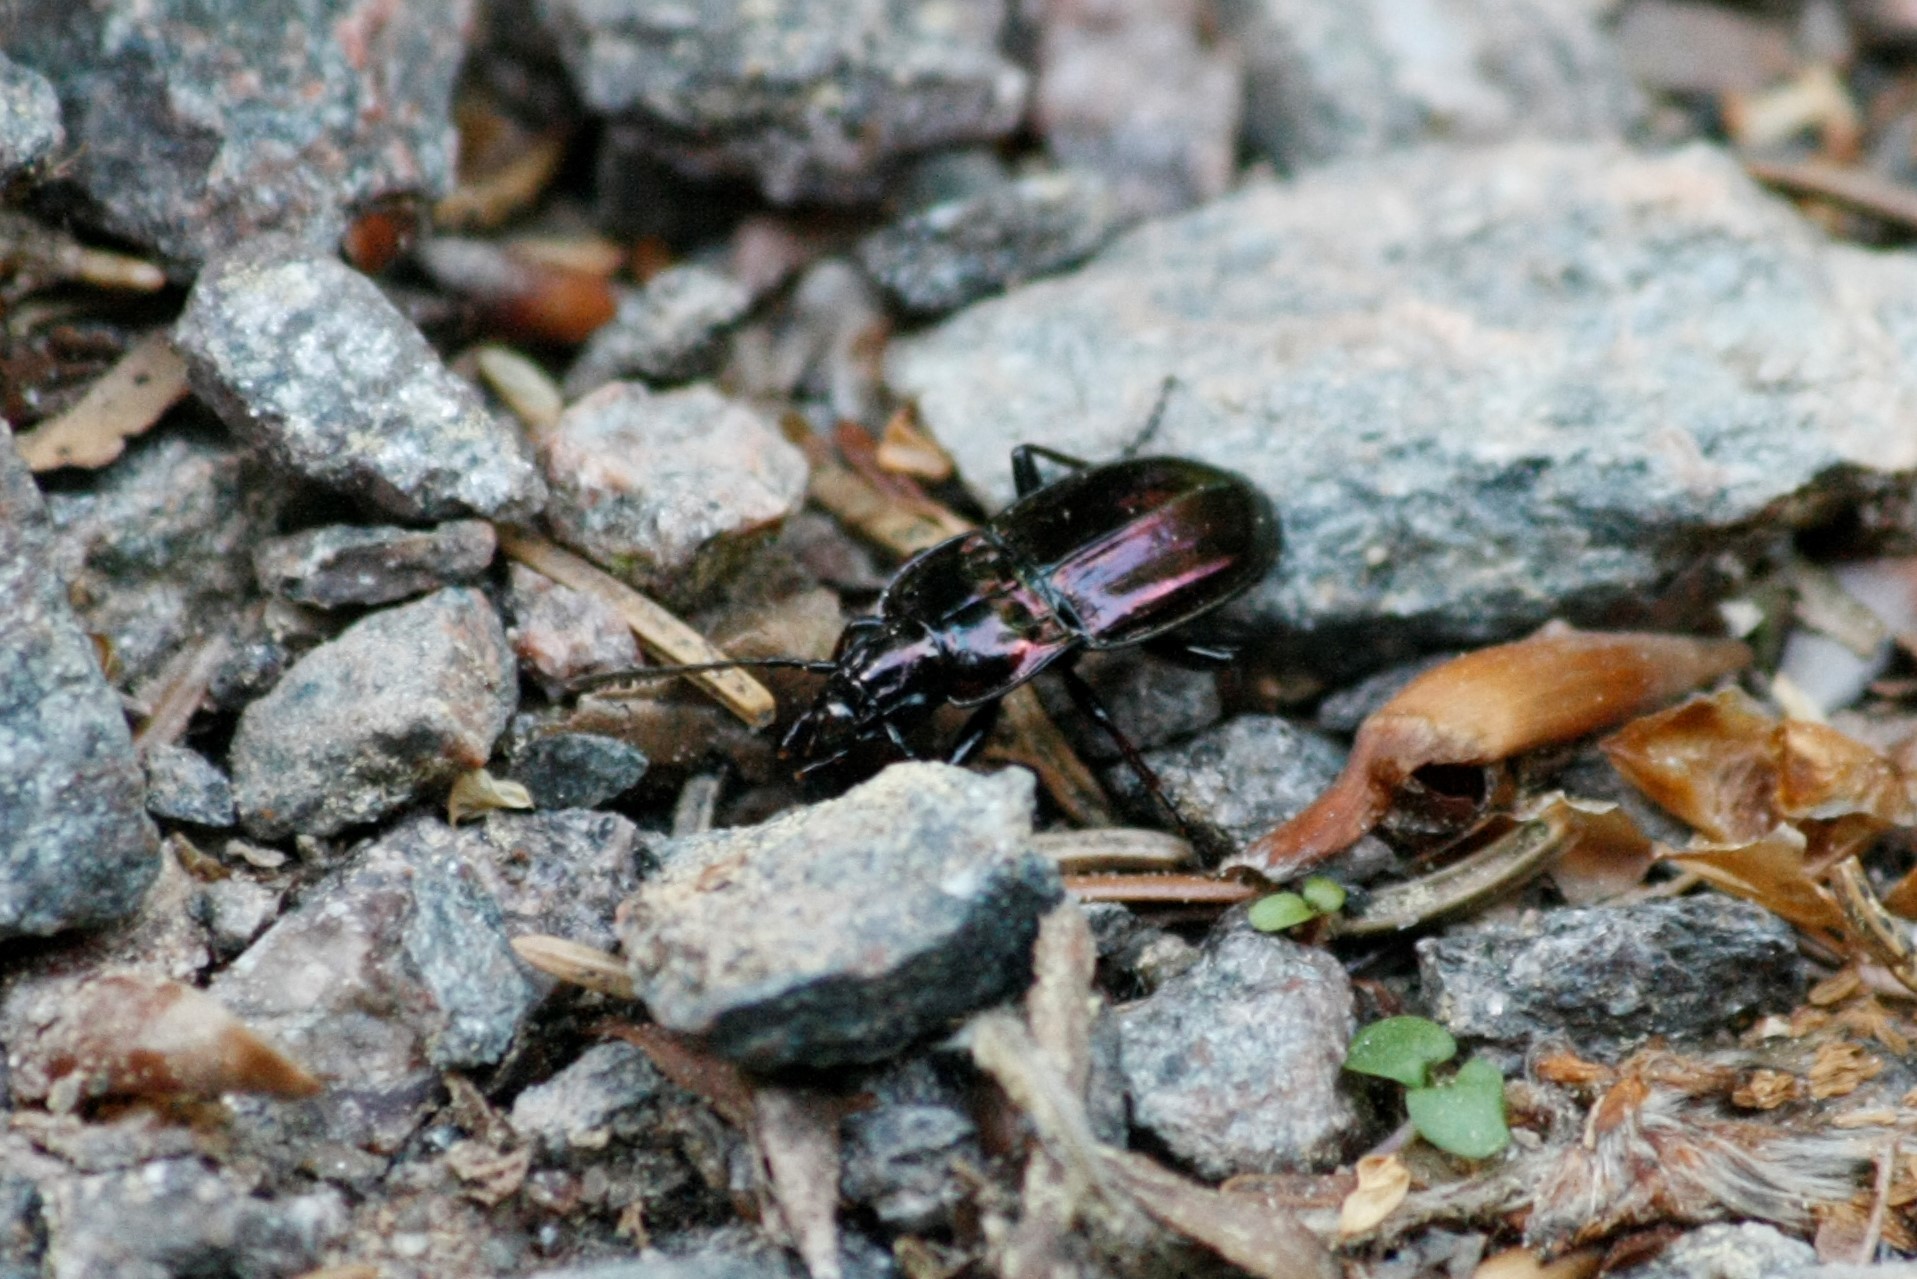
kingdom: Animalia
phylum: Arthropoda
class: Insecta
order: Coleoptera
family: Carabidae
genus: Pterostichus
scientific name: Pterostichus burmeisteri
